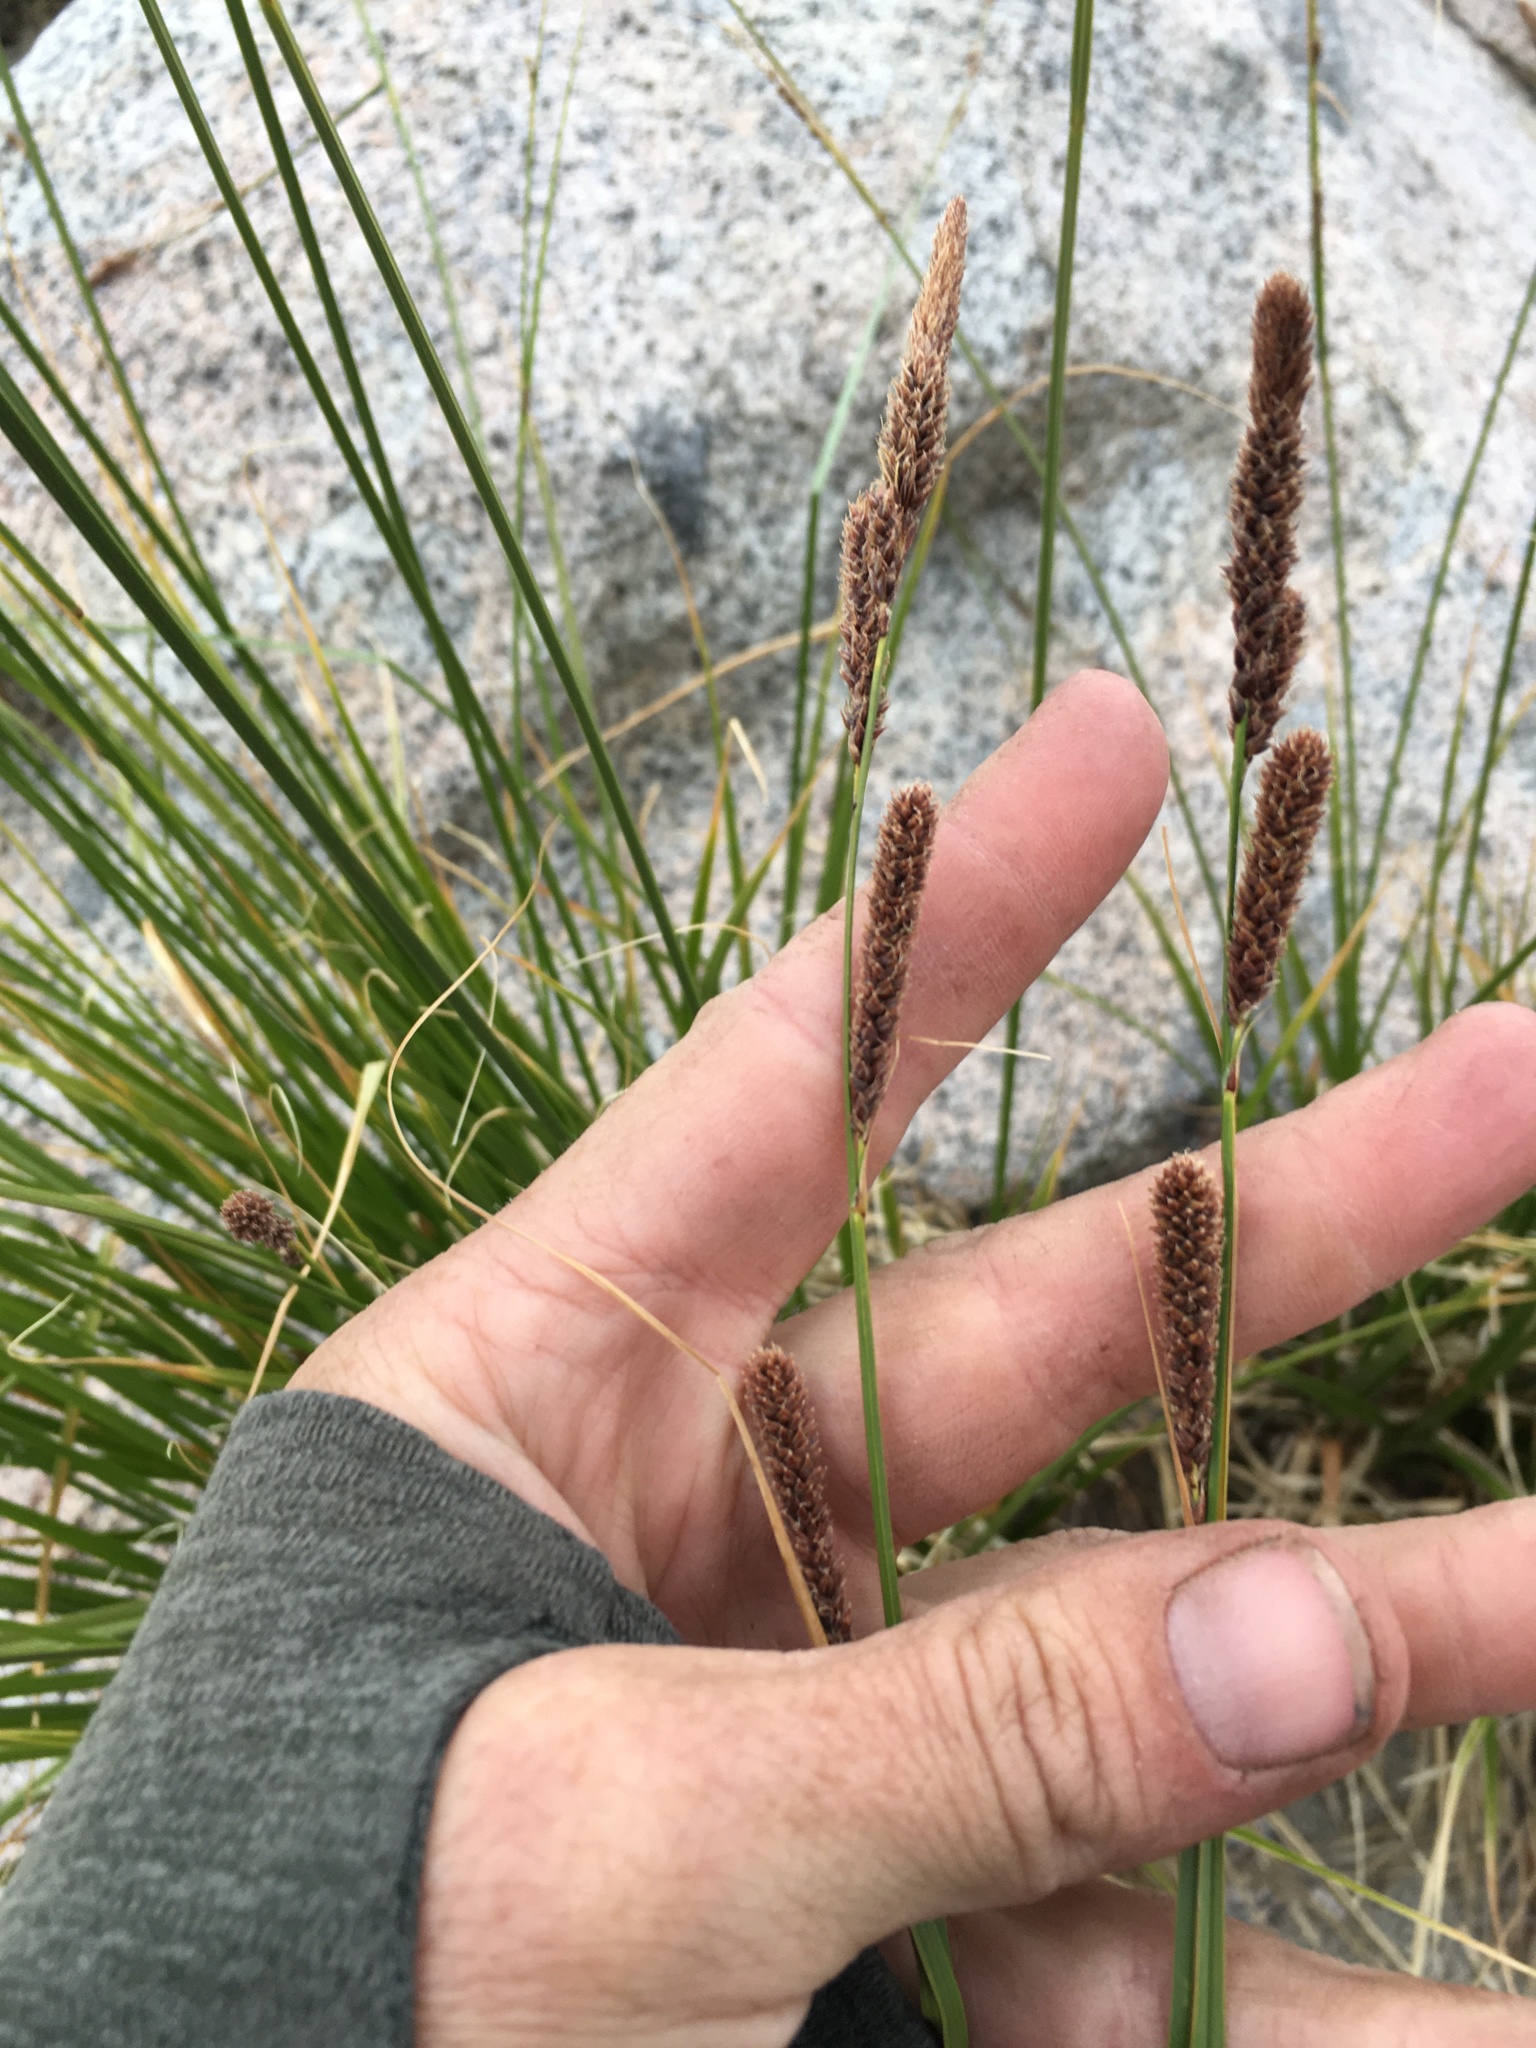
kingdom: Plantae
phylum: Tracheophyta
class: Liliopsida
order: Poales
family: Cyperaceae
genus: Carex
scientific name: Carex congdonii
